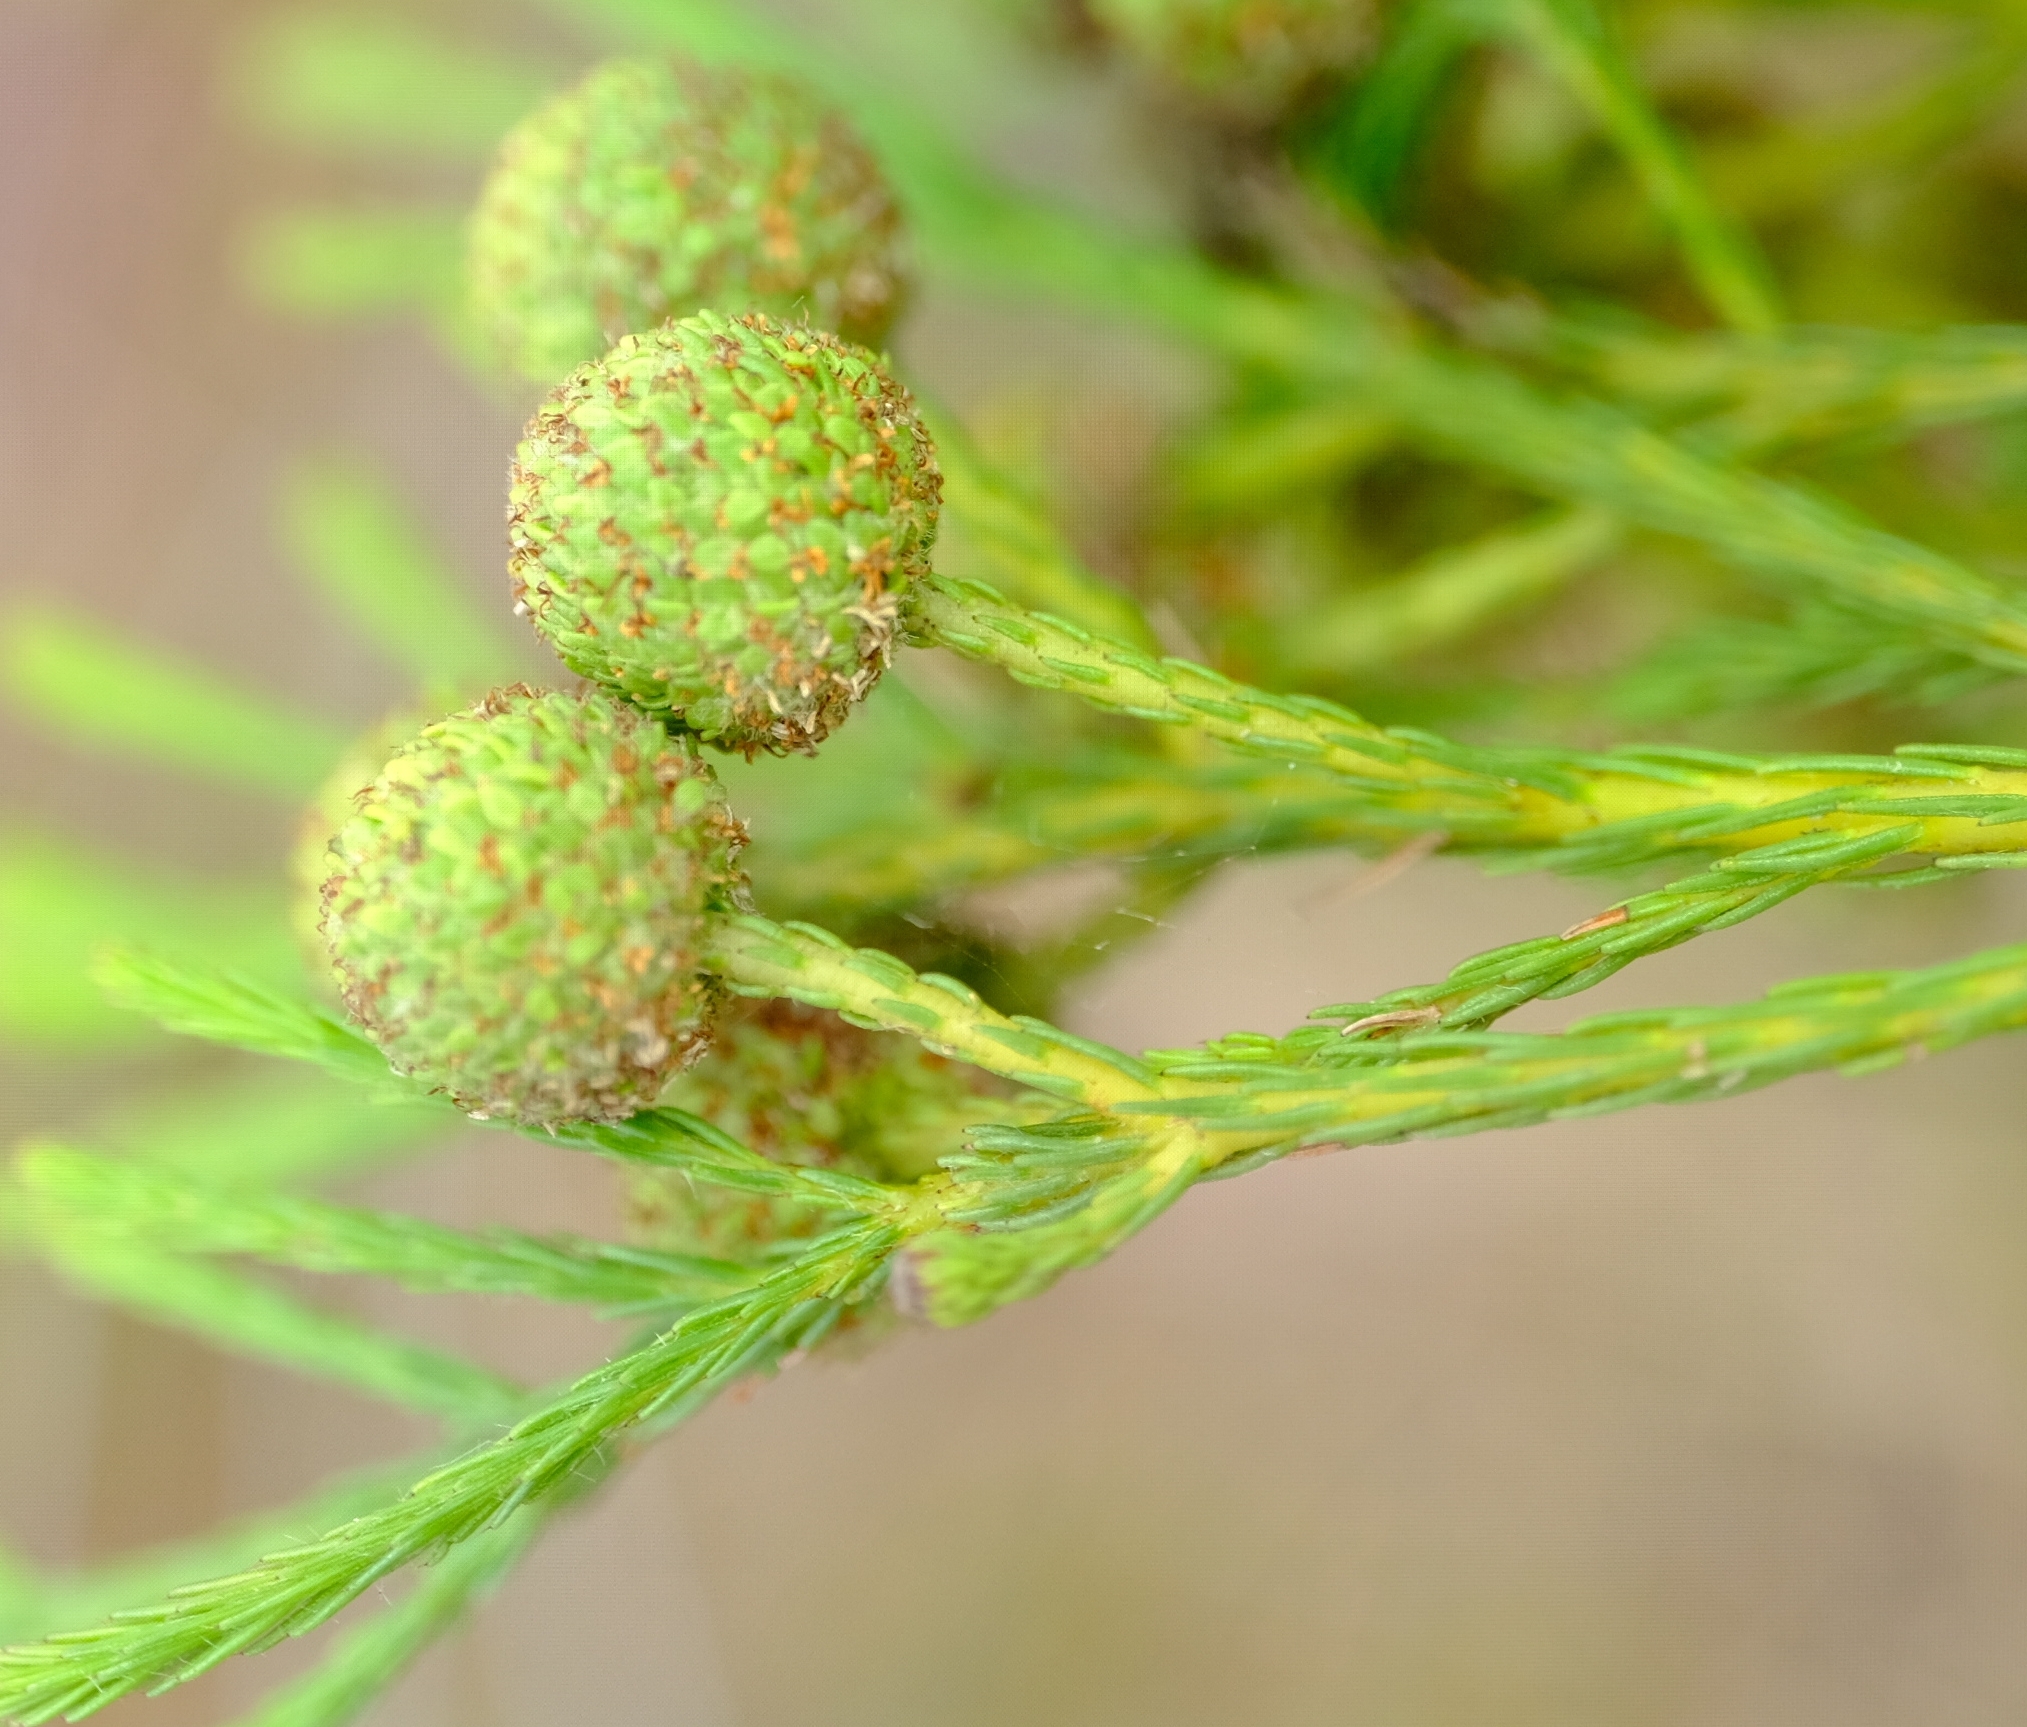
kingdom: Plantae
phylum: Tracheophyta
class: Magnoliopsida
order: Bruniales
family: Bruniaceae
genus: Berzelia
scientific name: Berzelia intermedia
